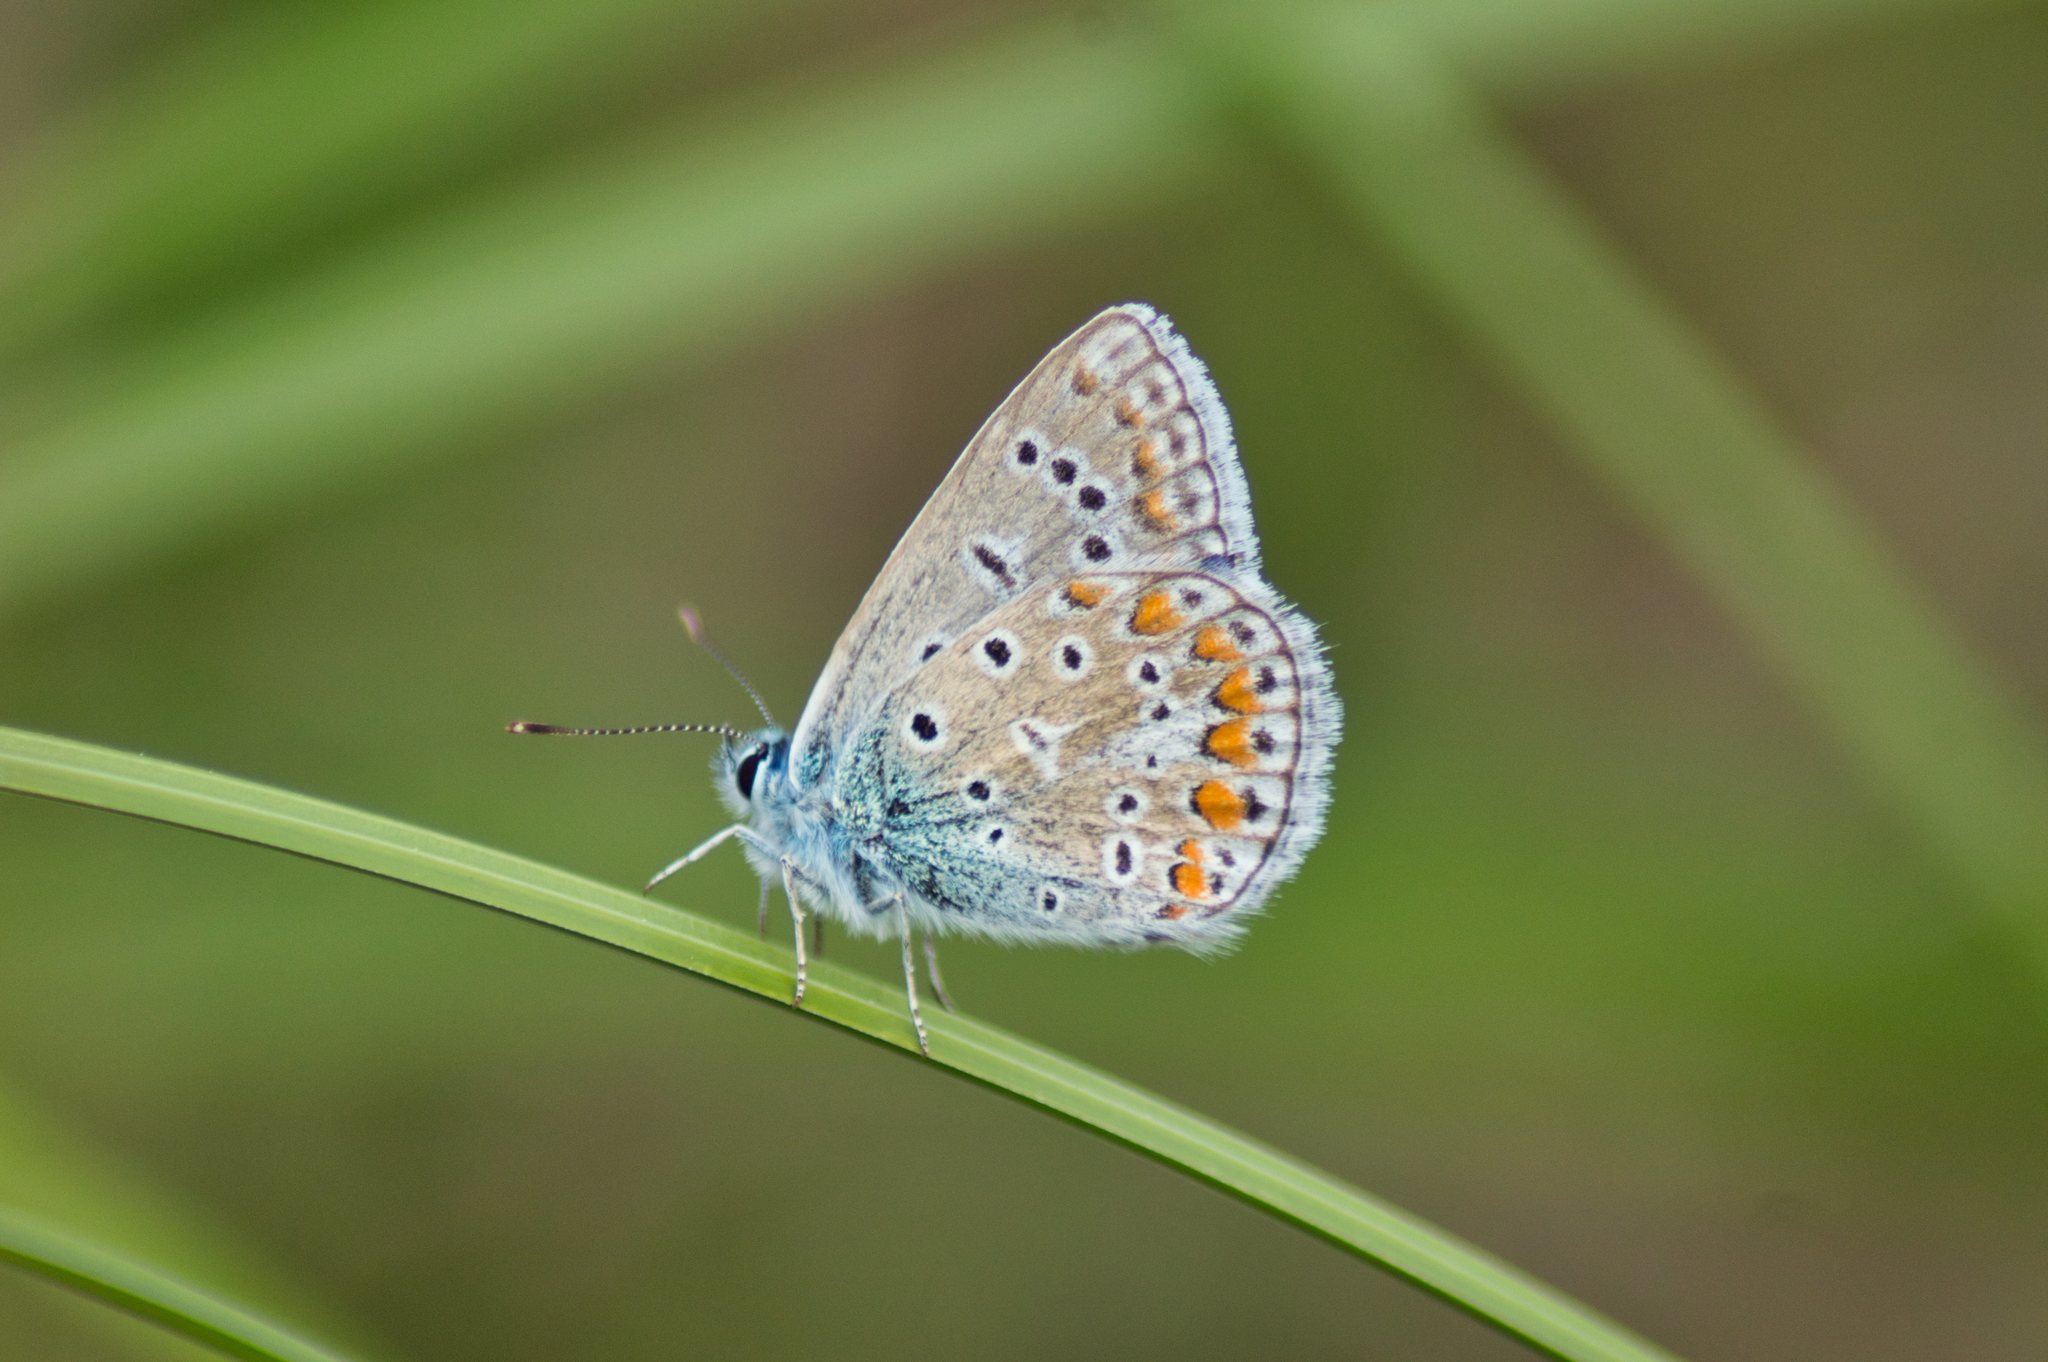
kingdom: Animalia
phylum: Arthropoda
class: Insecta
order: Lepidoptera
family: Lycaenidae
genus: Polyommatus
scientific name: Polyommatus icarus
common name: Common blue
